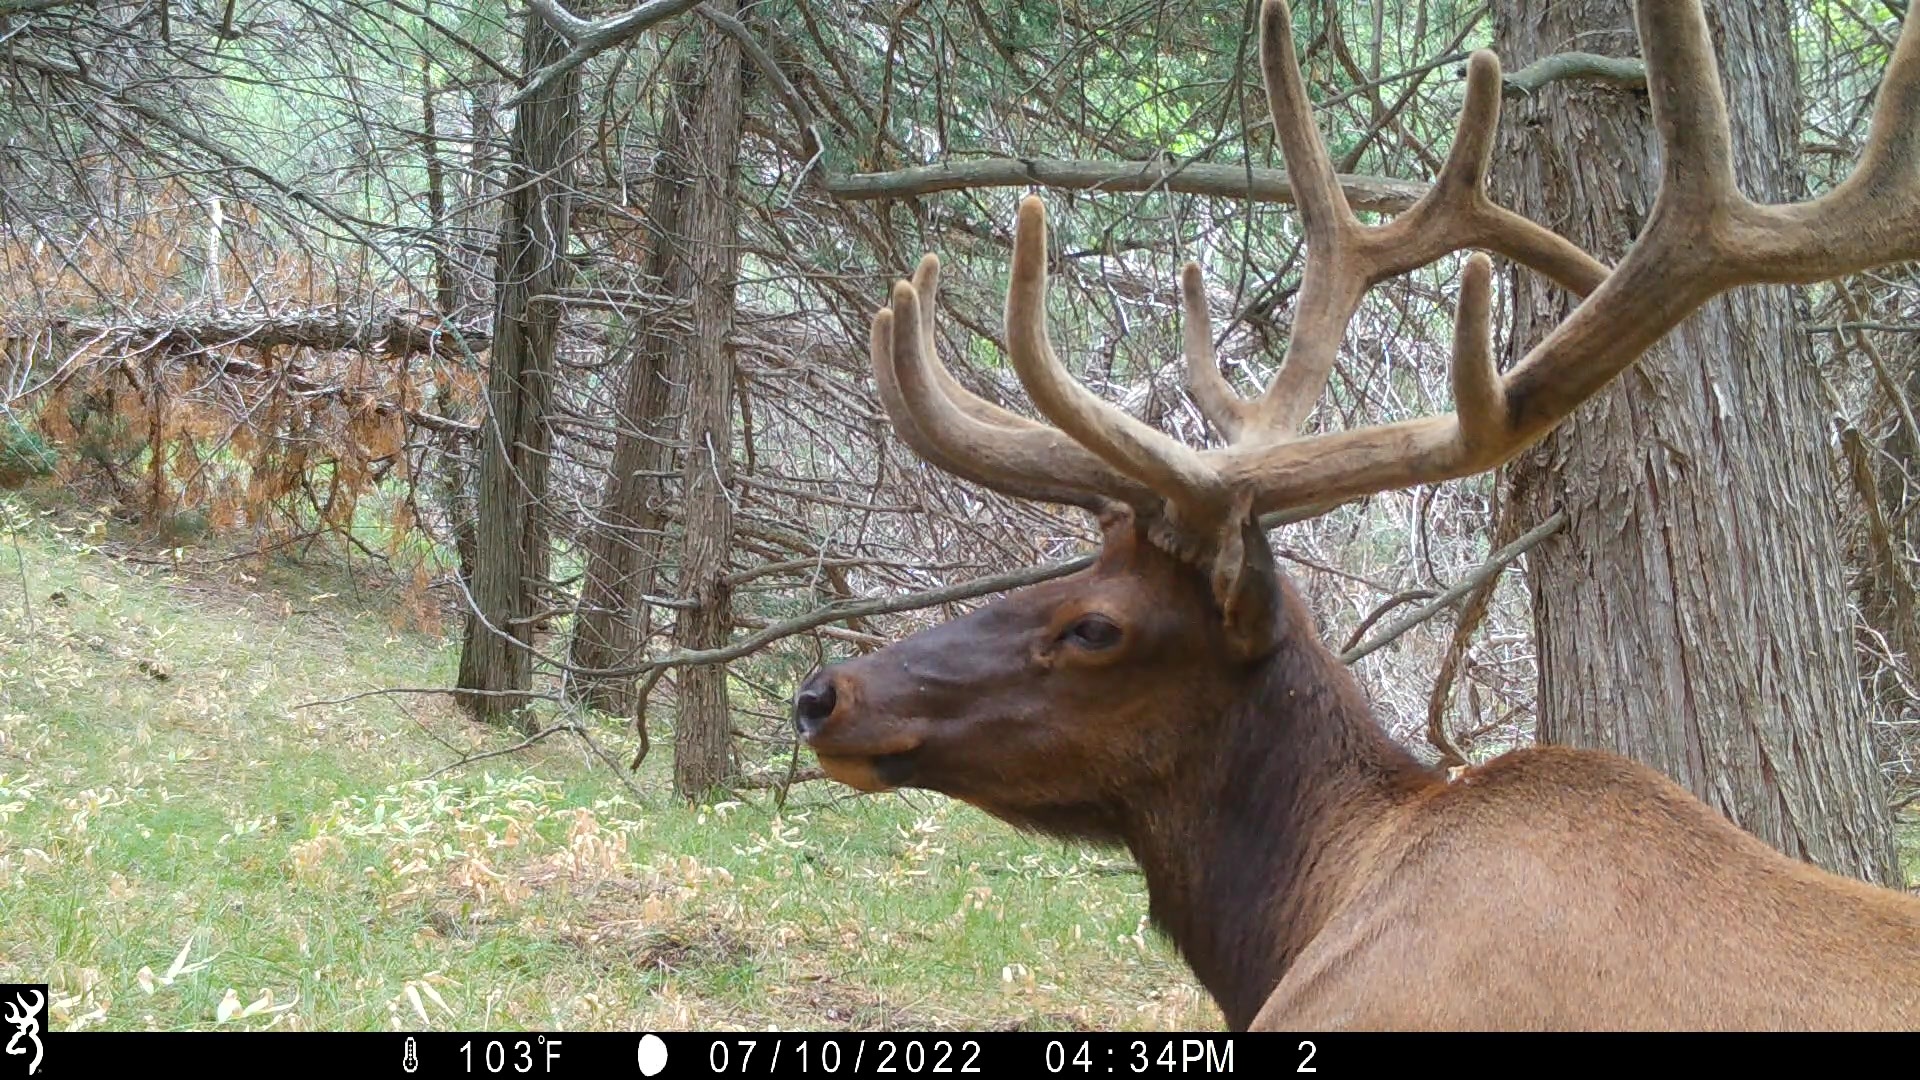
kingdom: Animalia
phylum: Chordata
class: Mammalia
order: Artiodactyla
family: Cervidae
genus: Cervus
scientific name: Cervus elaphus
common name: Red deer
